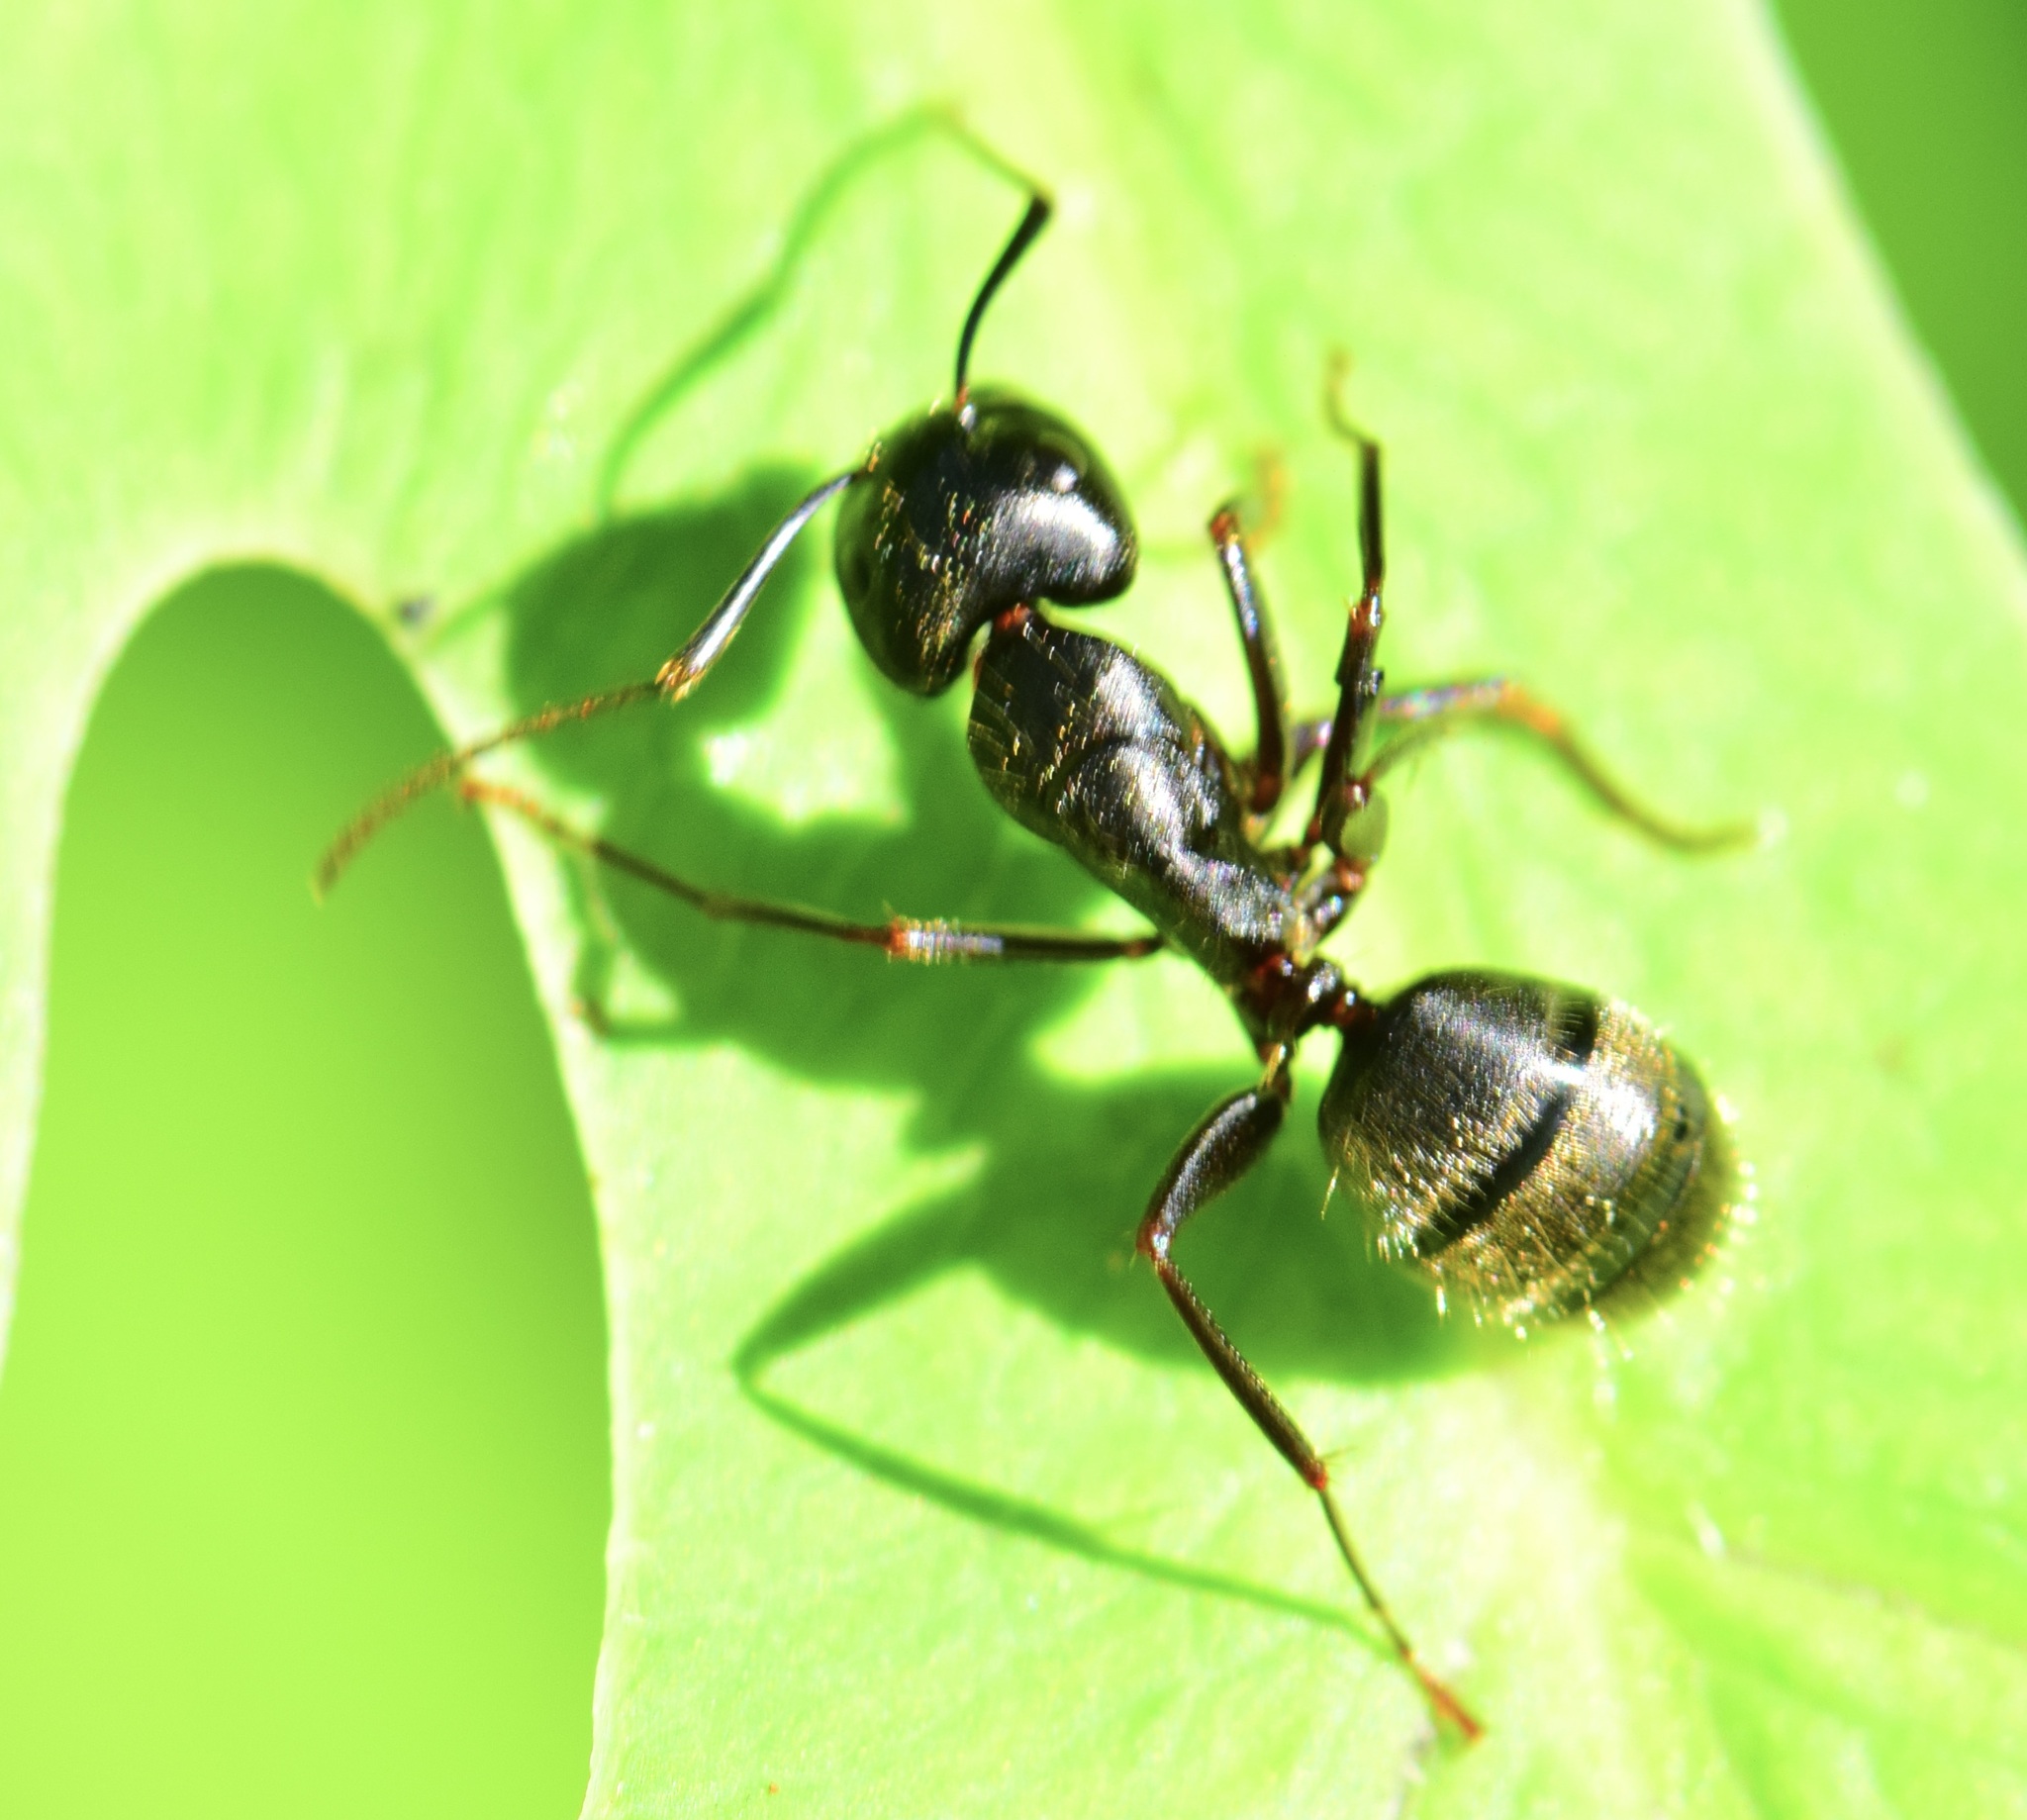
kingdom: Animalia
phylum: Arthropoda
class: Insecta
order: Hymenoptera
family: Formicidae
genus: Camponotus
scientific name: Camponotus pennsylvanicus
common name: Black carpenter ant
